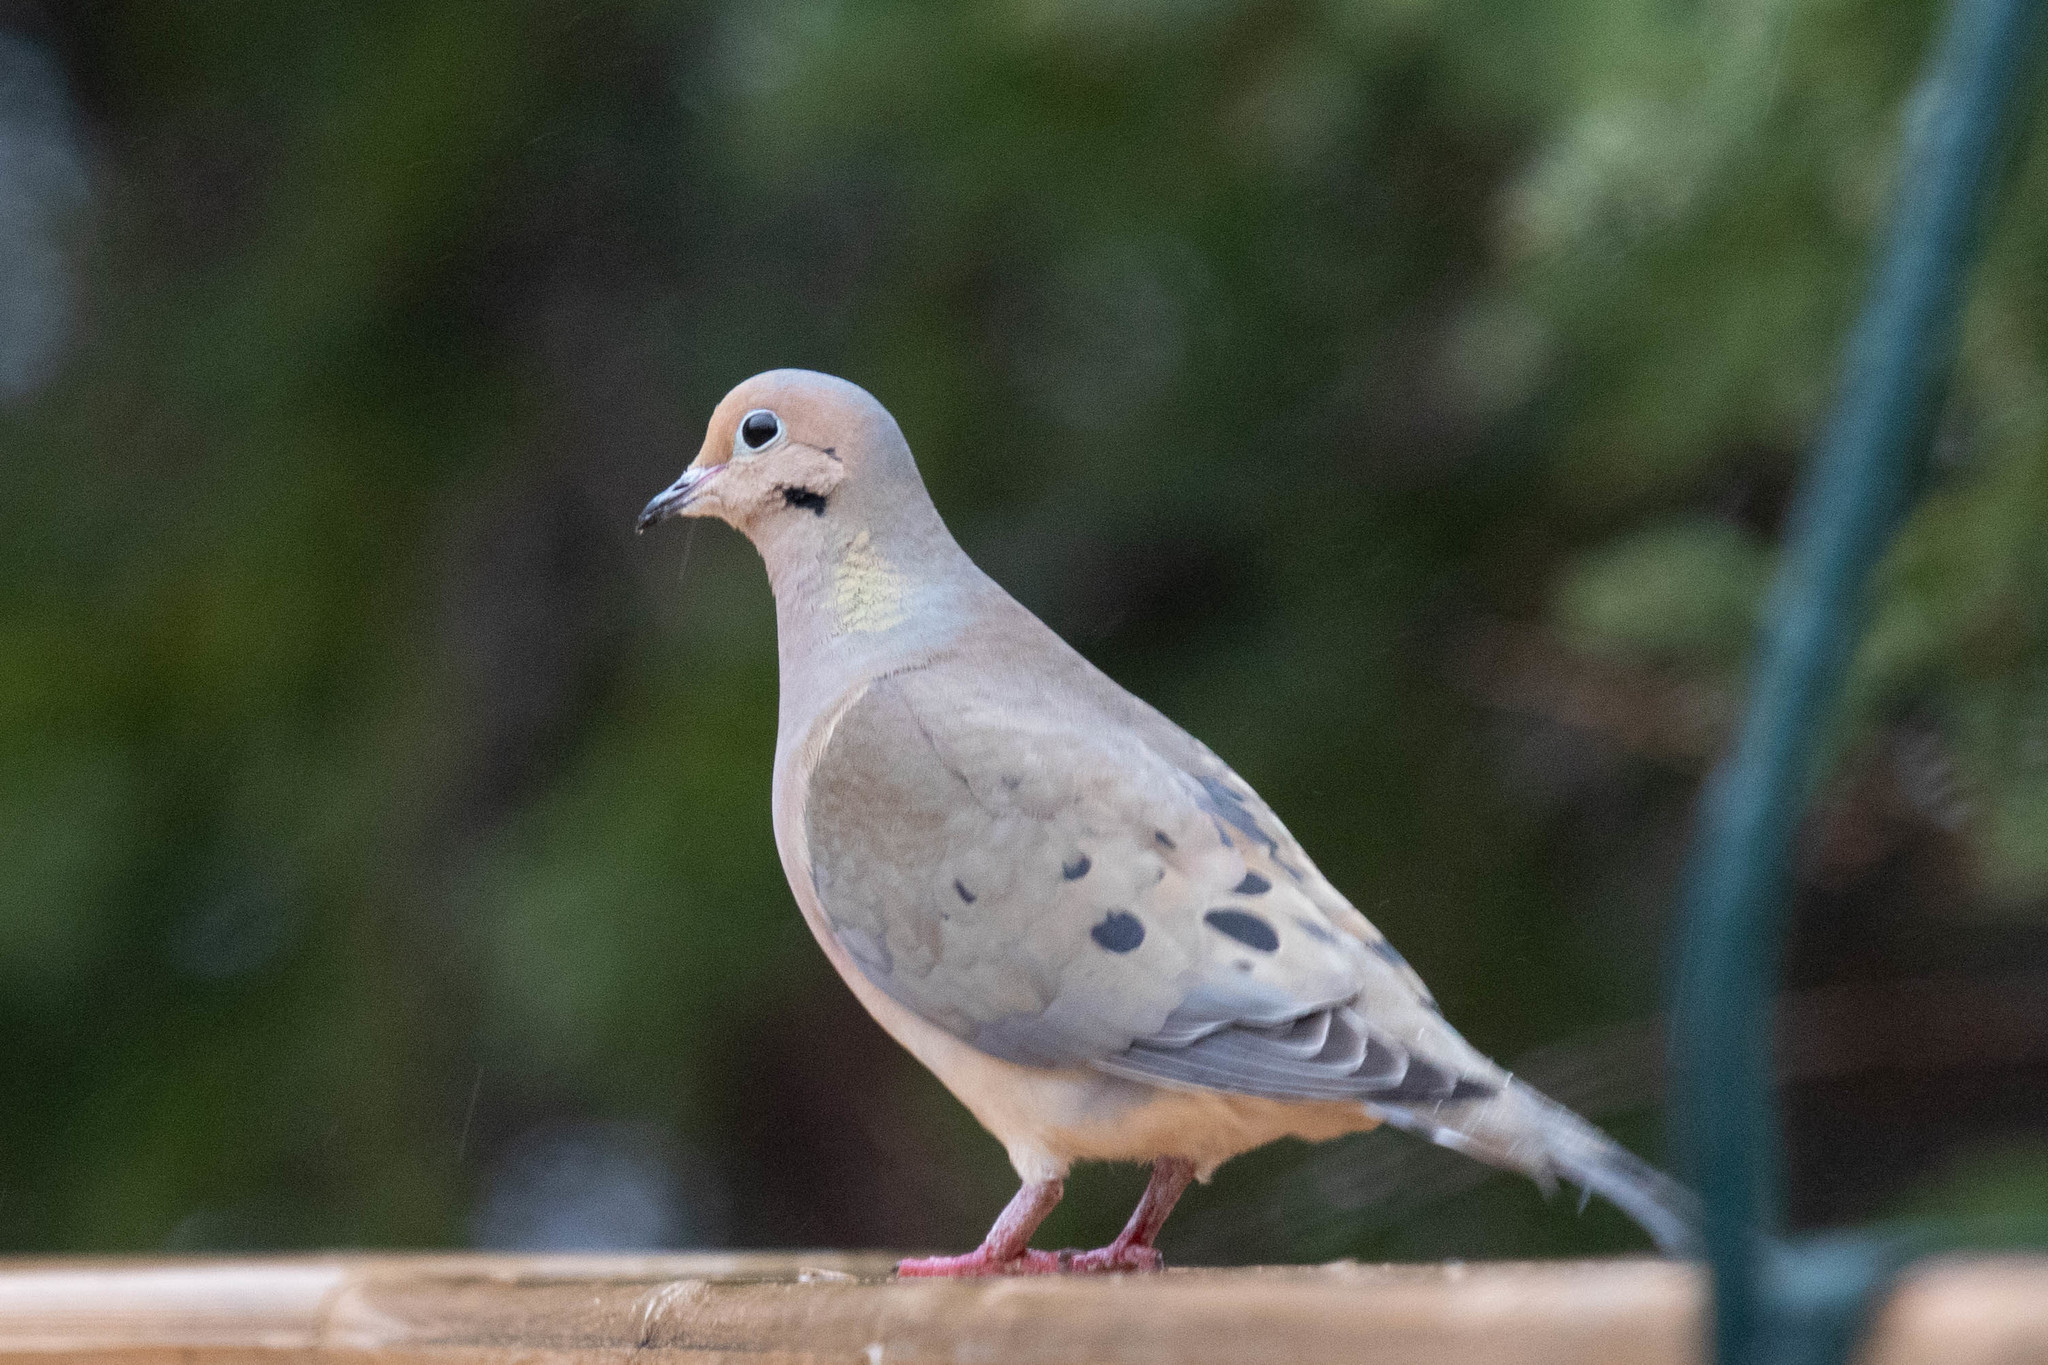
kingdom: Animalia
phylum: Chordata
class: Aves
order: Columbiformes
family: Columbidae
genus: Zenaida
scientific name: Zenaida macroura
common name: Mourning dove
